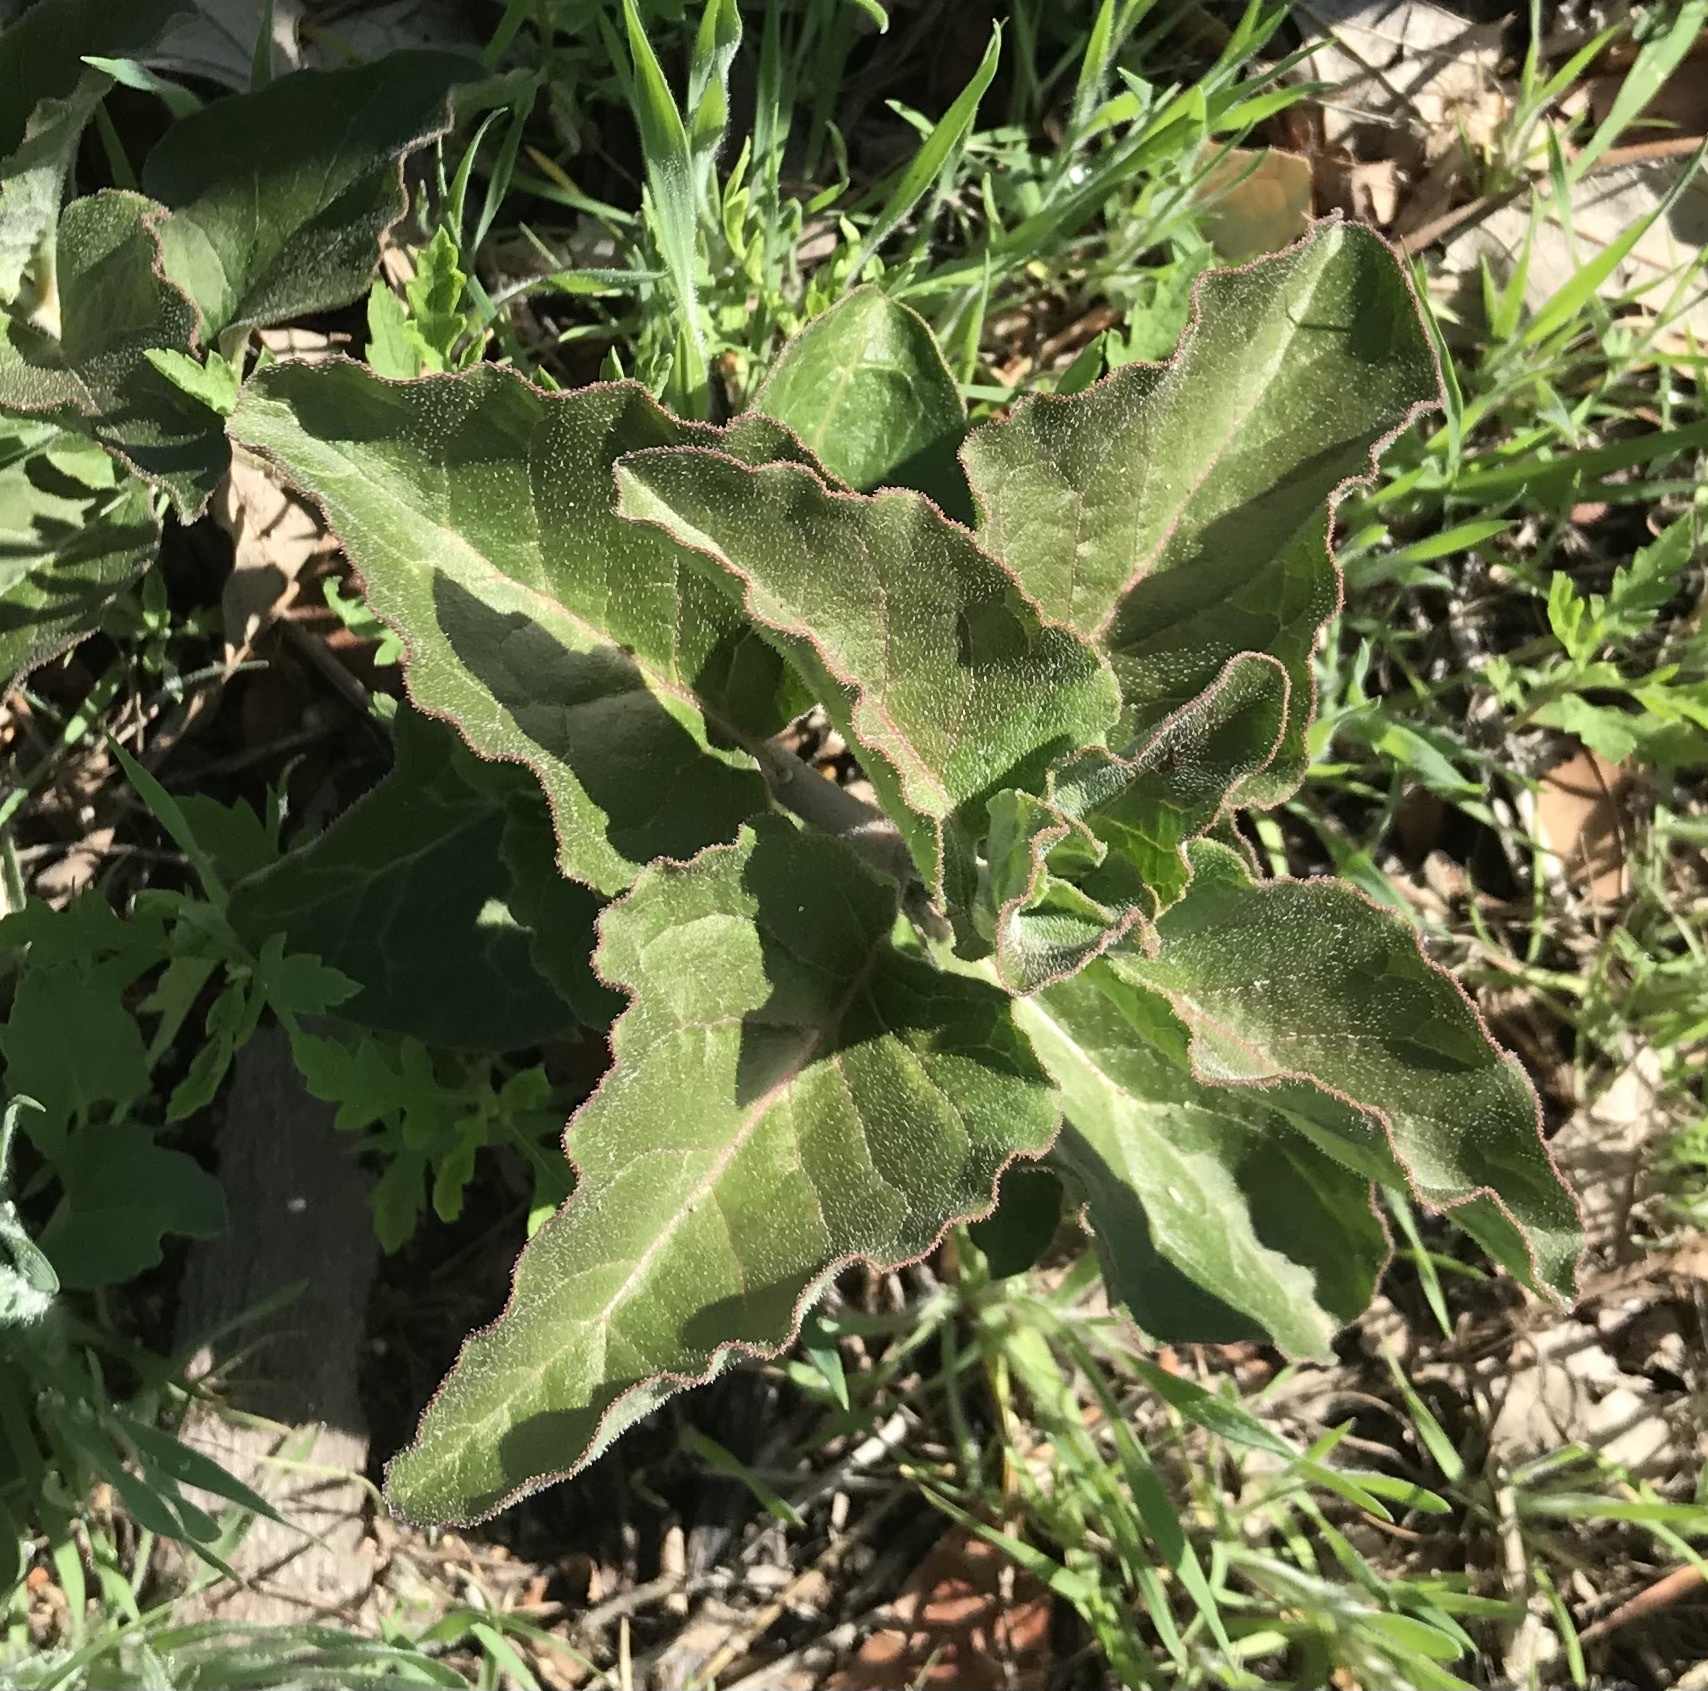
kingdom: Plantae
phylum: Tracheophyta
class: Magnoliopsida
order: Gentianales
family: Apocynaceae
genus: Asclepias
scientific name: Asclepias oenotheroides
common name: Zizotes milkweed
